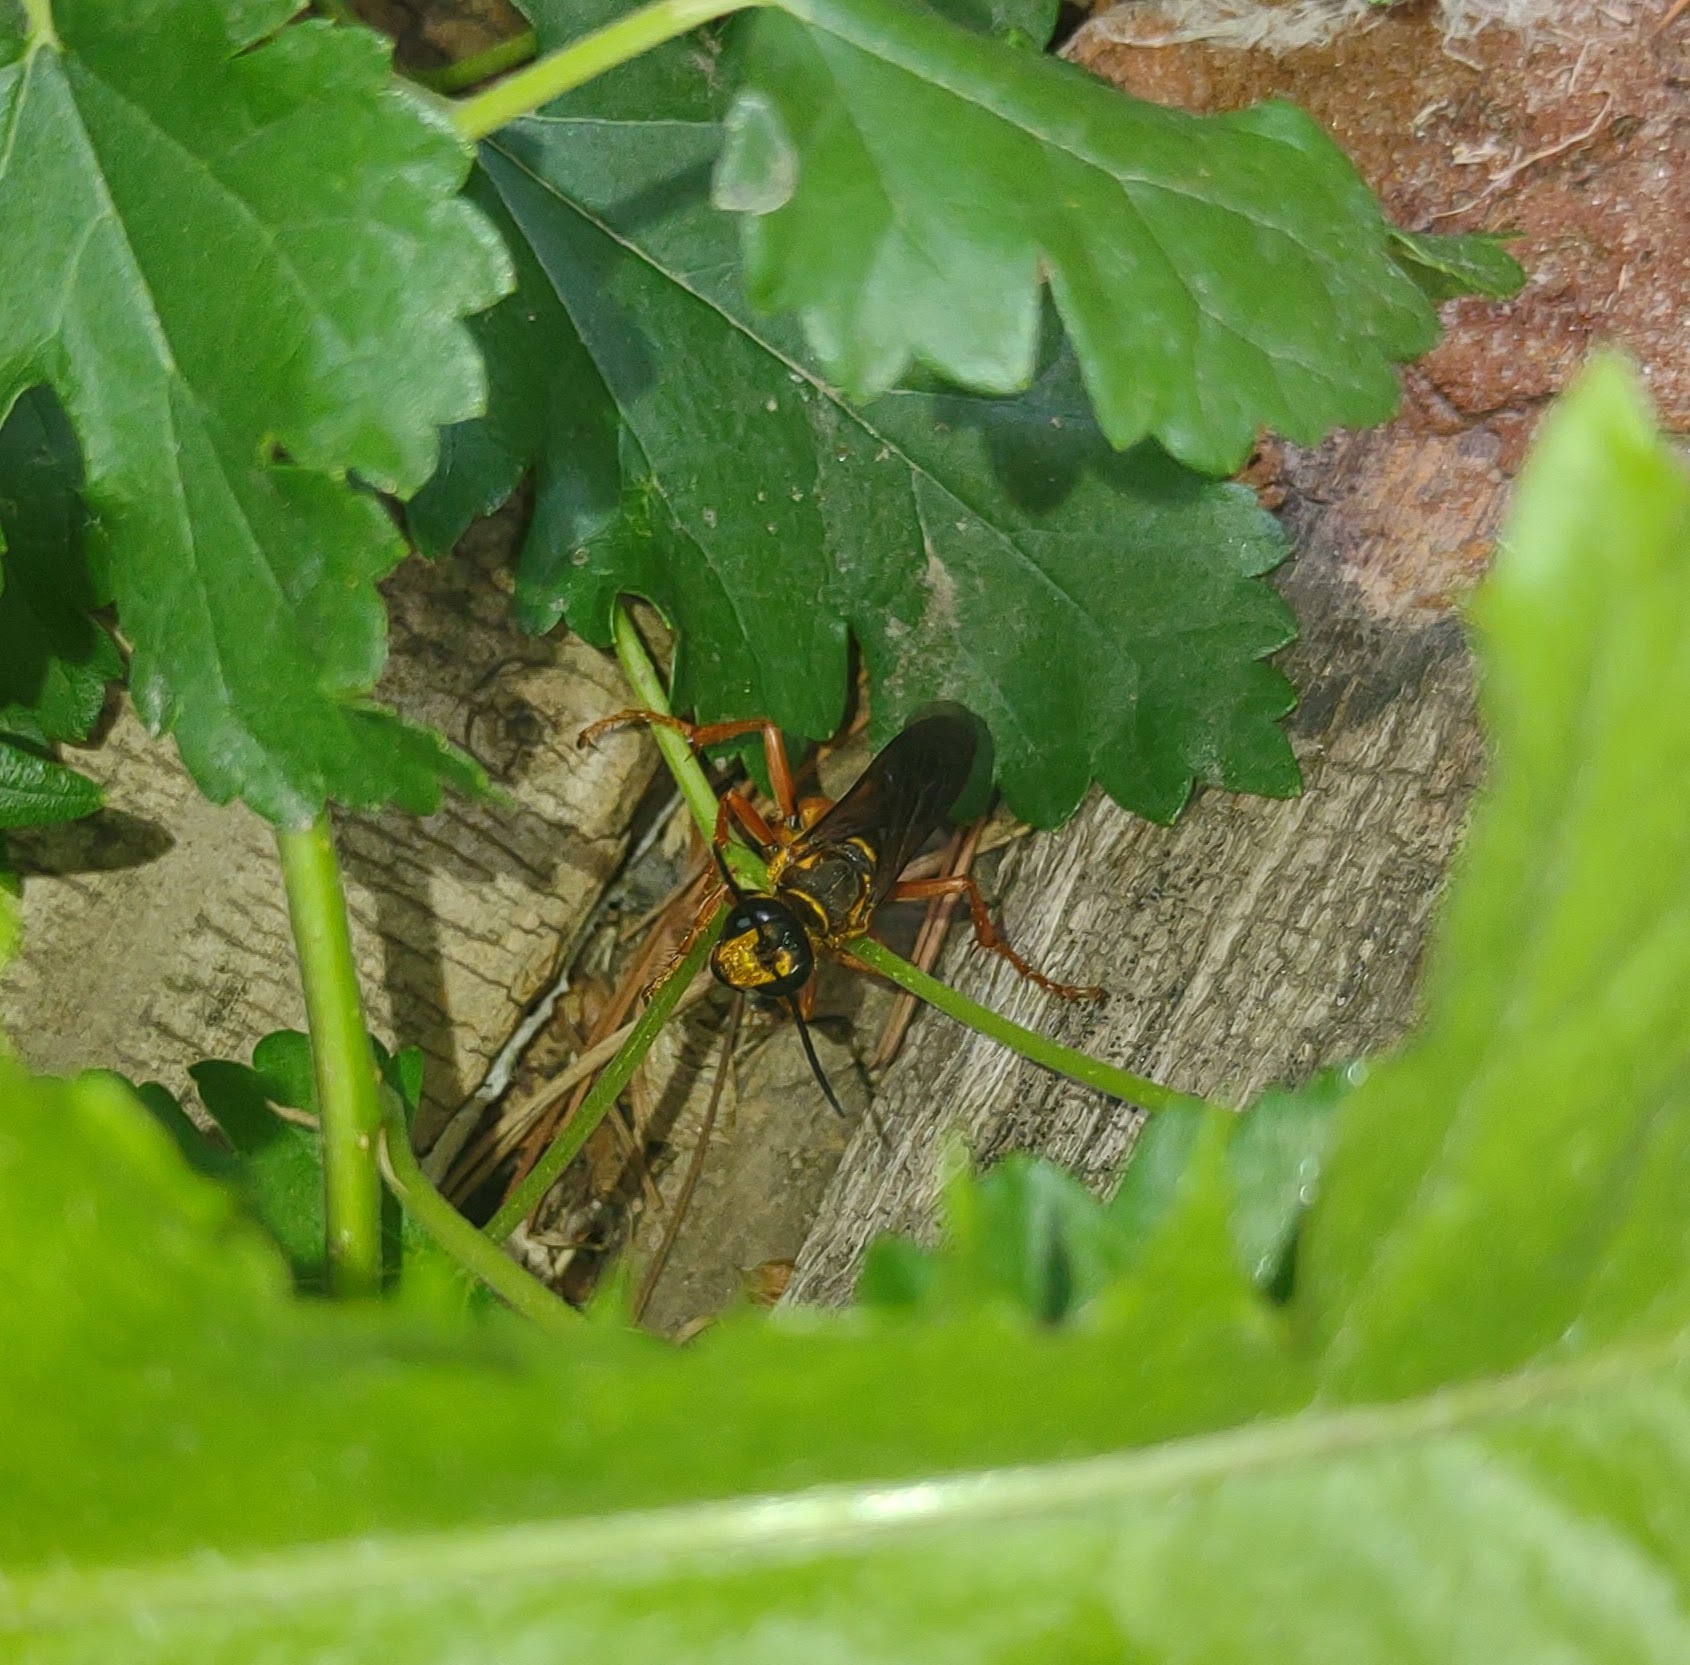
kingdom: Animalia
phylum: Arthropoda
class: Insecta
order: Hymenoptera
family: Sphecidae
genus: Sphex
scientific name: Sphex ichneumoneus
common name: Great golden digger wasp
